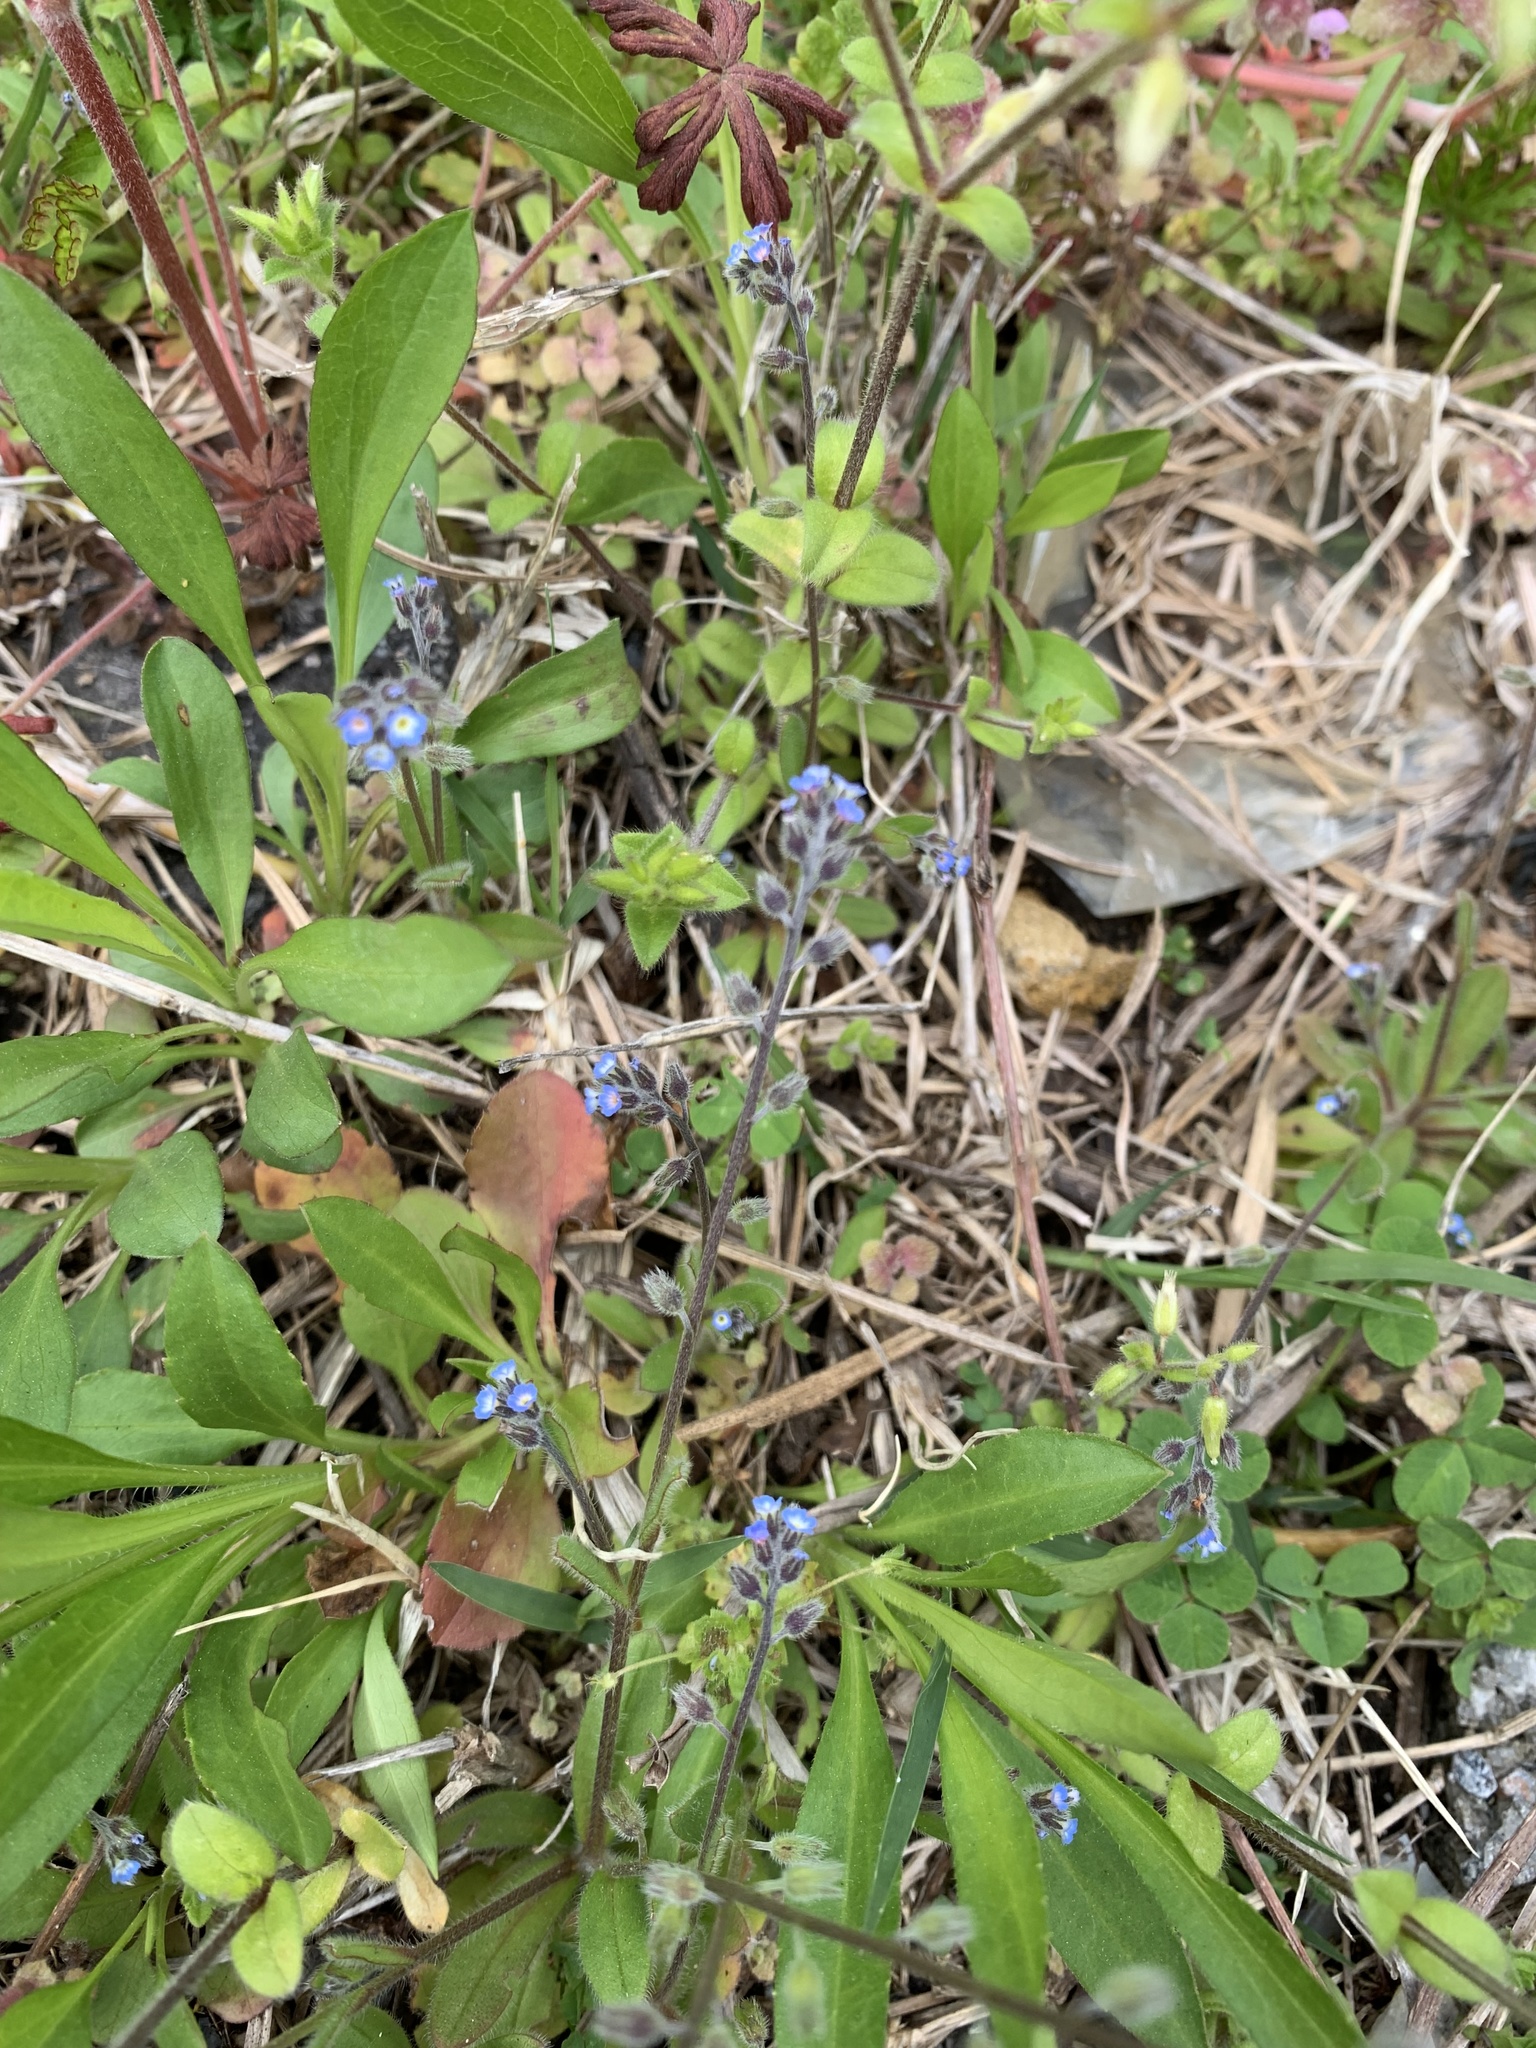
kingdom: Plantae
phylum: Tracheophyta
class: Magnoliopsida
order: Boraginales
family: Boraginaceae
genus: Myosotis
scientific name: Myosotis ramosissima
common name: Early forget-me-not
